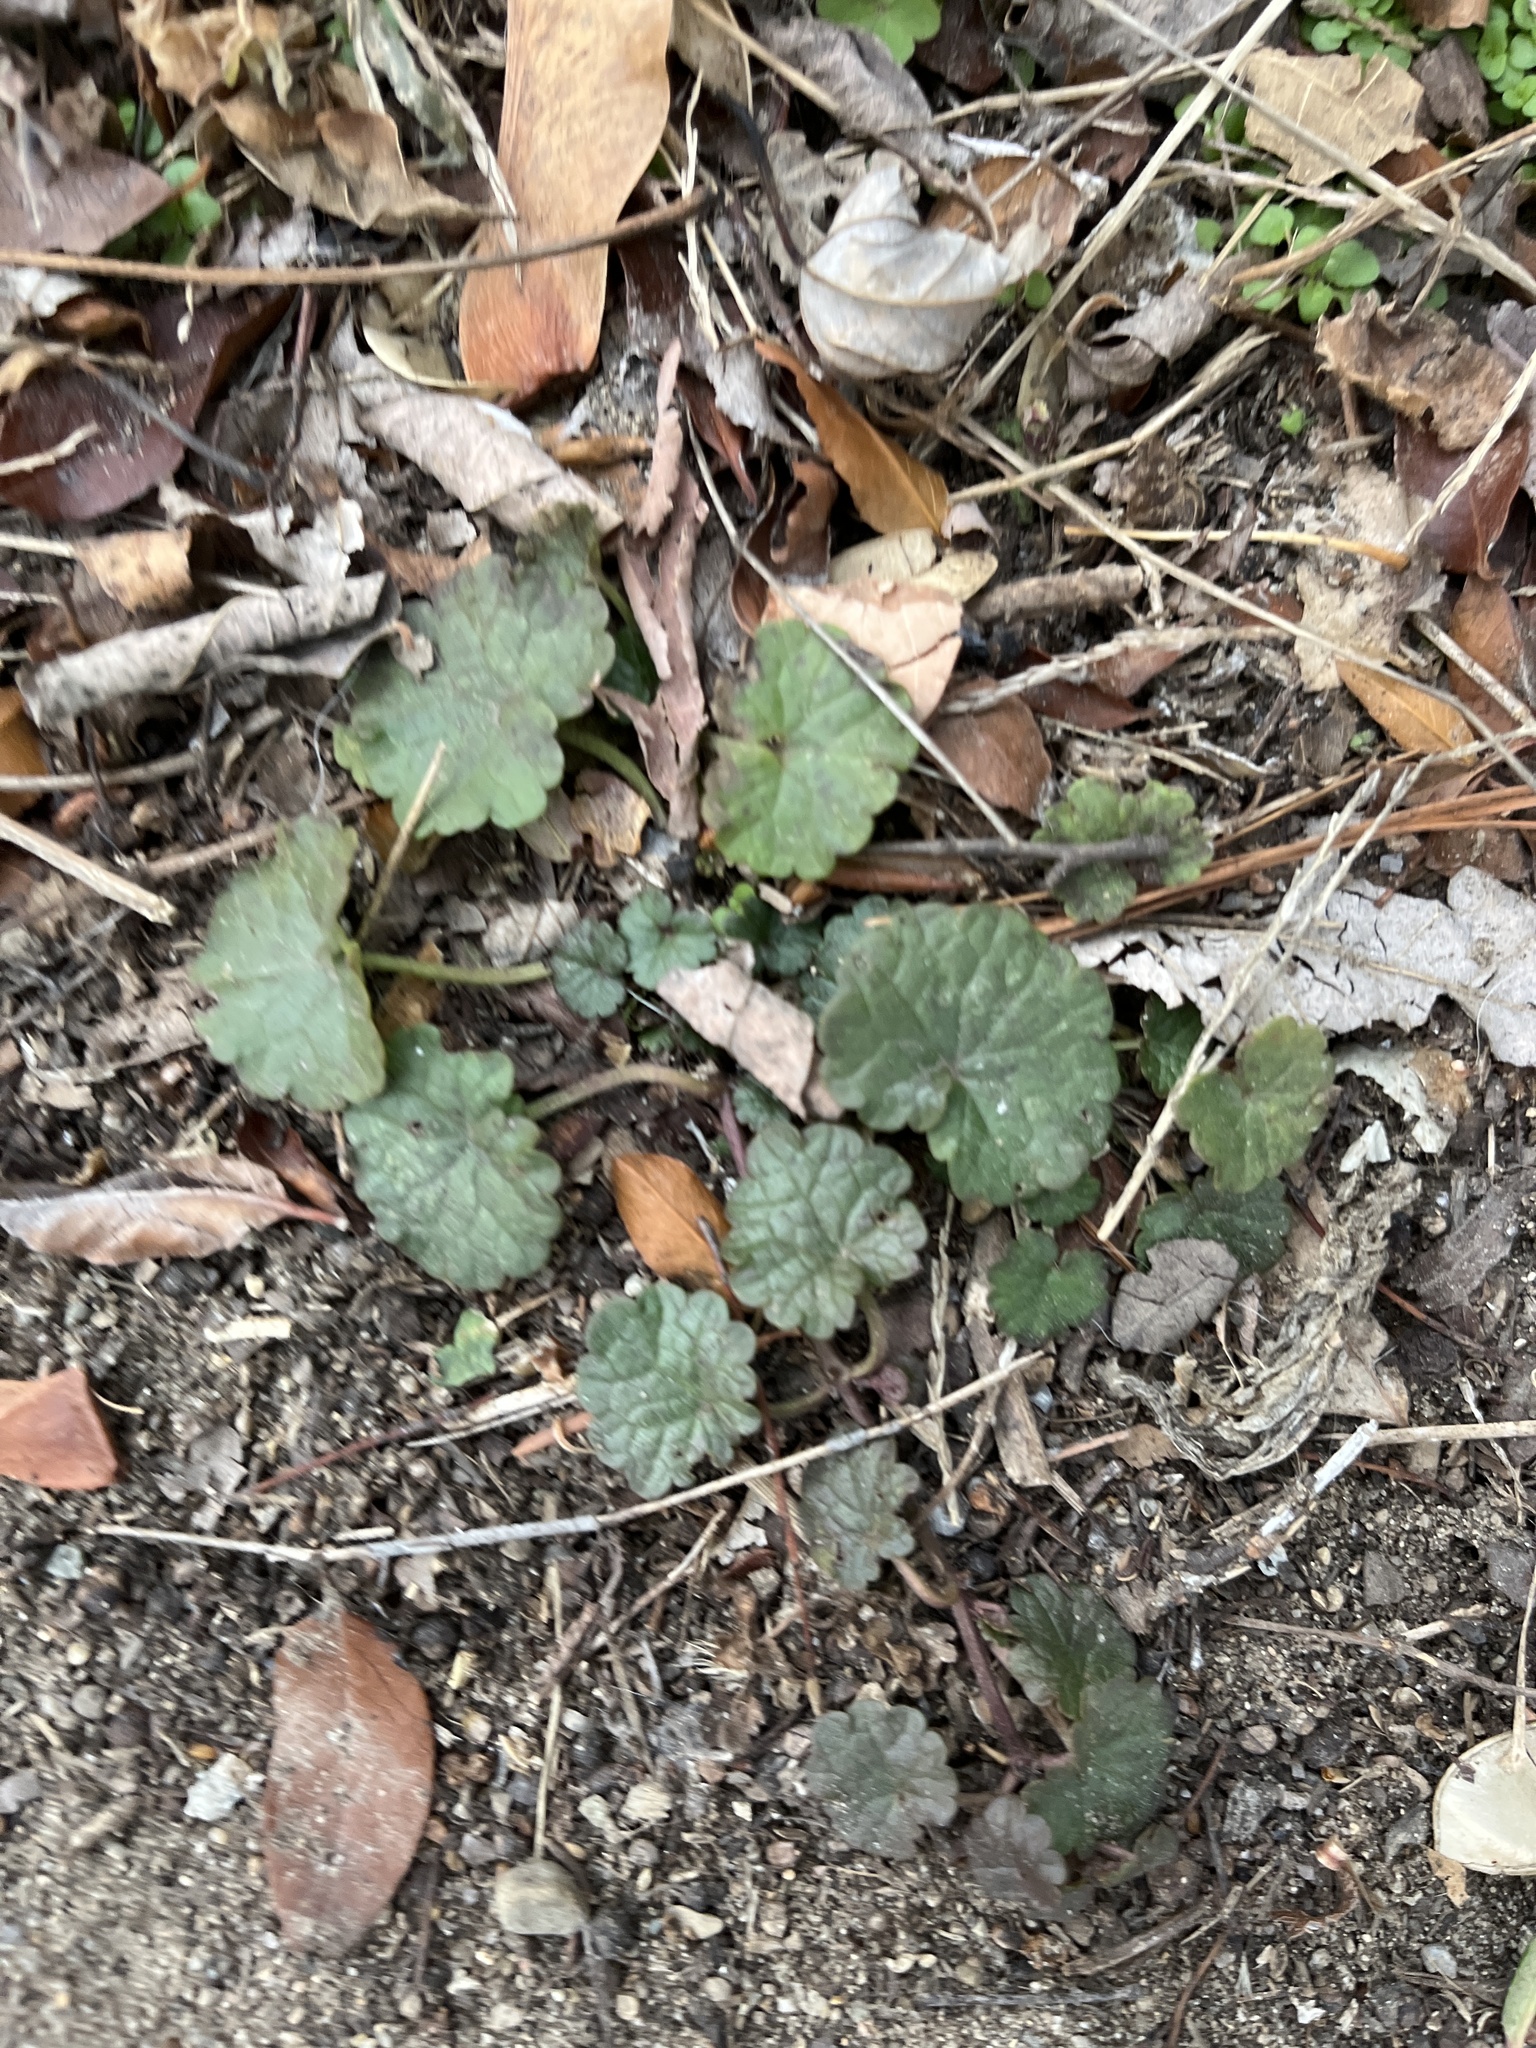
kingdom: Plantae
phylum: Tracheophyta
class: Magnoliopsida
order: Lamiales
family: Lamiaceae
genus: Glechoma
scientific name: Glechoma hederacea
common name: Ground ivy
